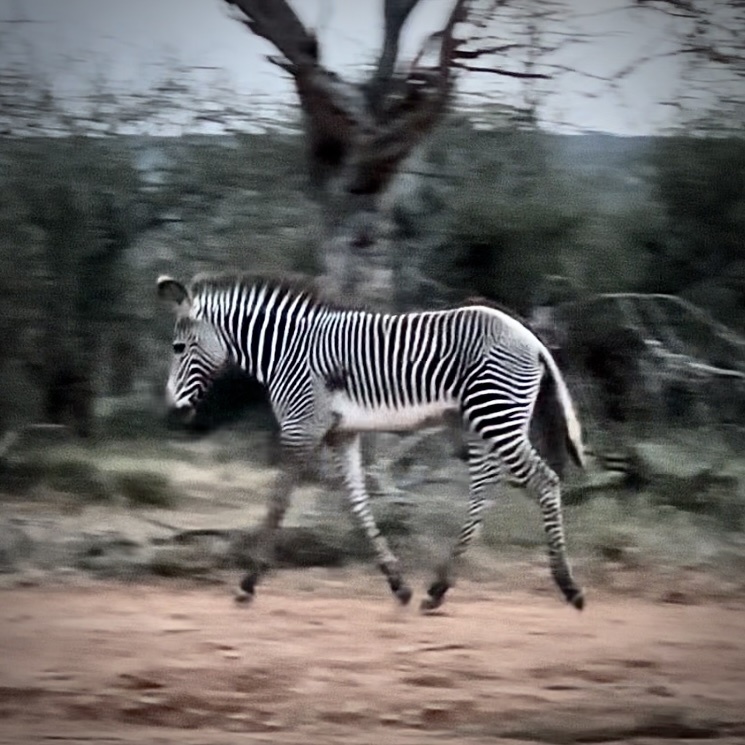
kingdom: Animalia
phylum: Chordata
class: Mammalia
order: Perissodactyla
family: Equidae
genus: Equus
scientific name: Equus grevyi
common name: Grevy's zebra
